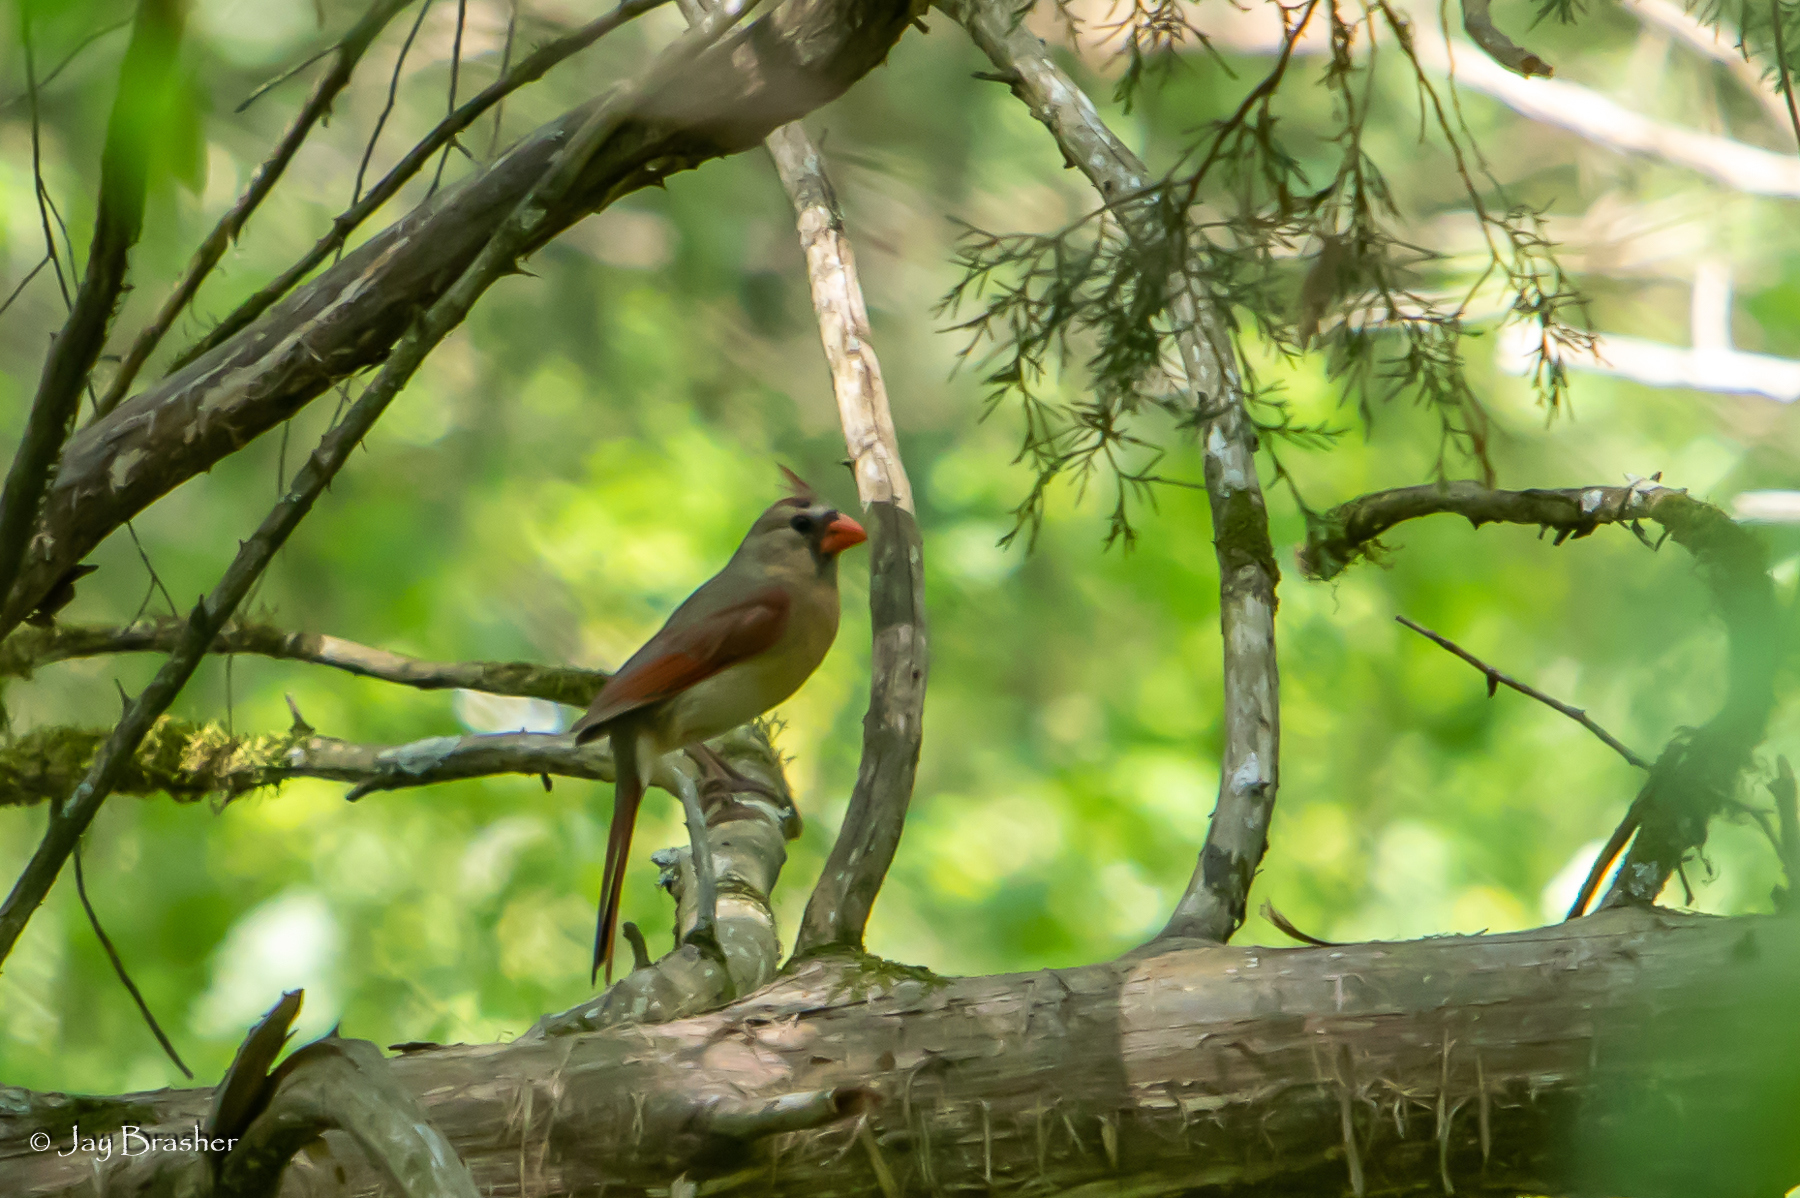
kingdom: Animalia
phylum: Chordata
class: Aves
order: Passeriformes
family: Cardinalidae
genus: Cardinalis
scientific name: Cardinalis cardinalis
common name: Northern cardinal
